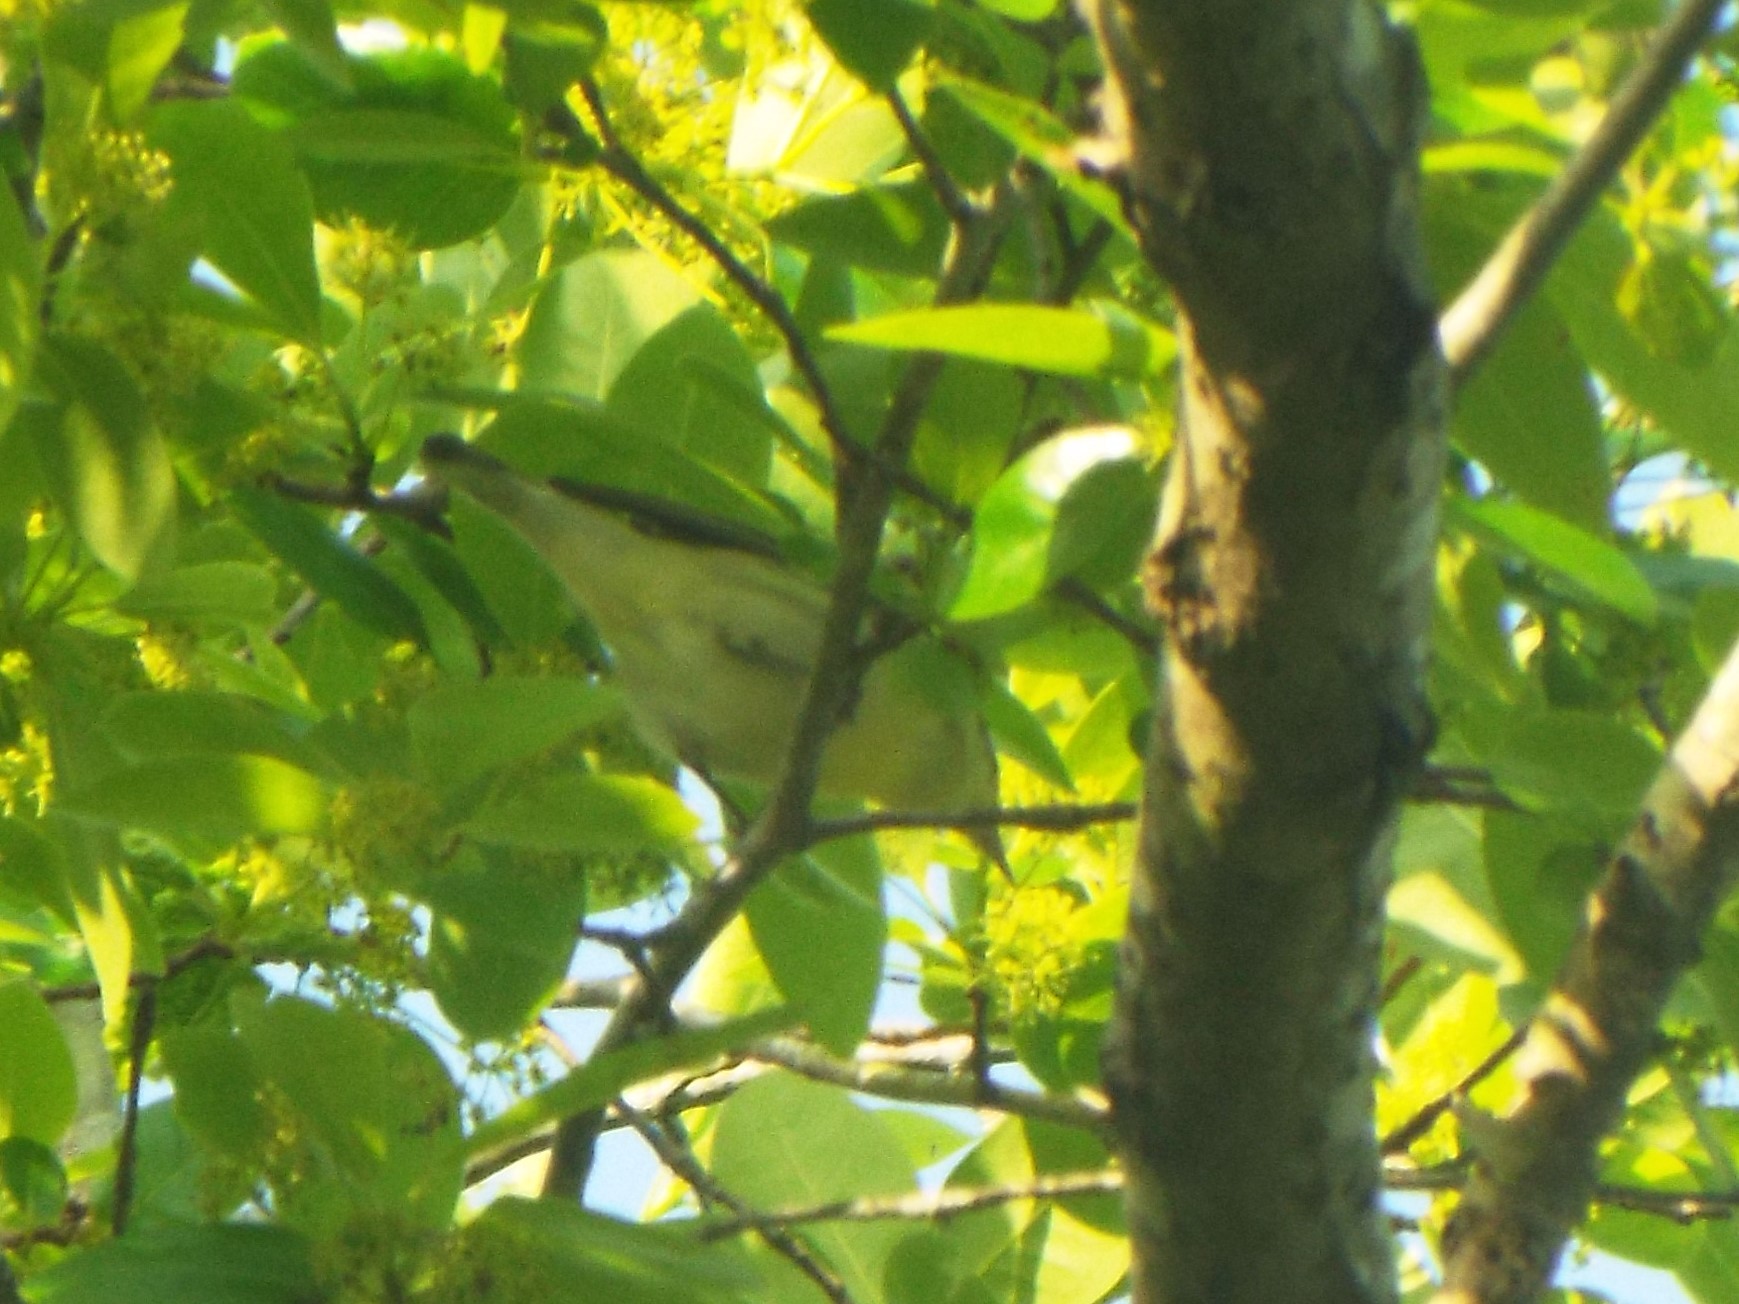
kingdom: Animalia
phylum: Chordata
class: Aves
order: Passeriformes
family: Parulidae
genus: Setophaga
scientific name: Setophaga cerulea
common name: Cerulean warbler
